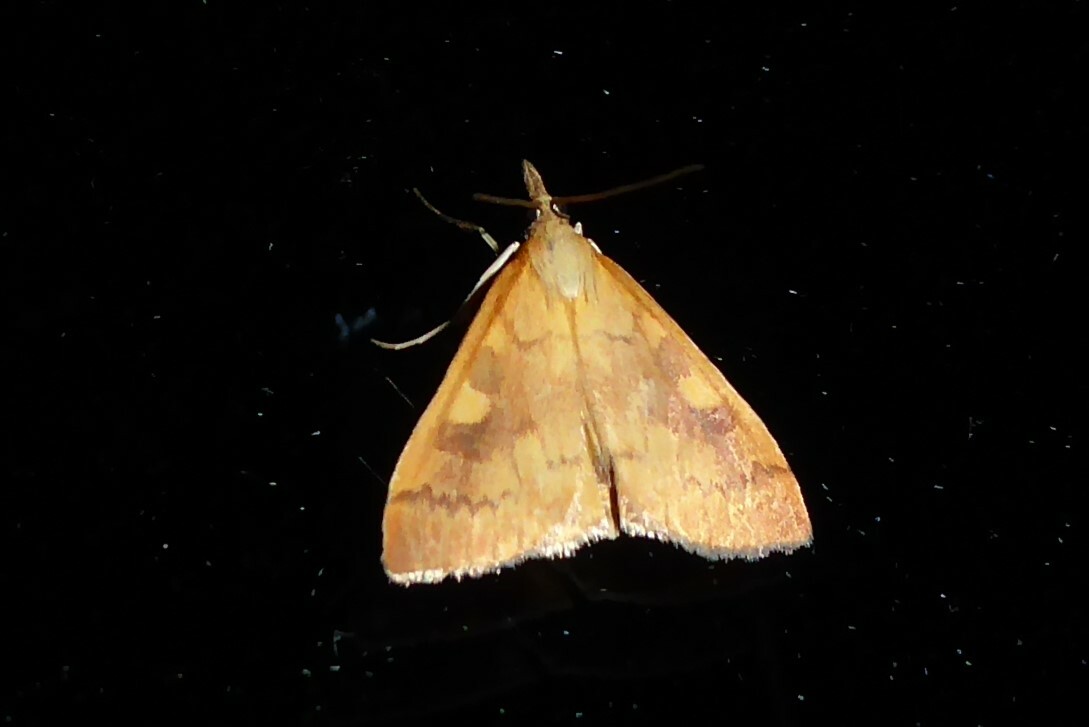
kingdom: Animalia
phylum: Arthropoda
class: Insecta
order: Lepidoptera
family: Crambidae
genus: Udea
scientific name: Udea Mnesictena flavidalis
